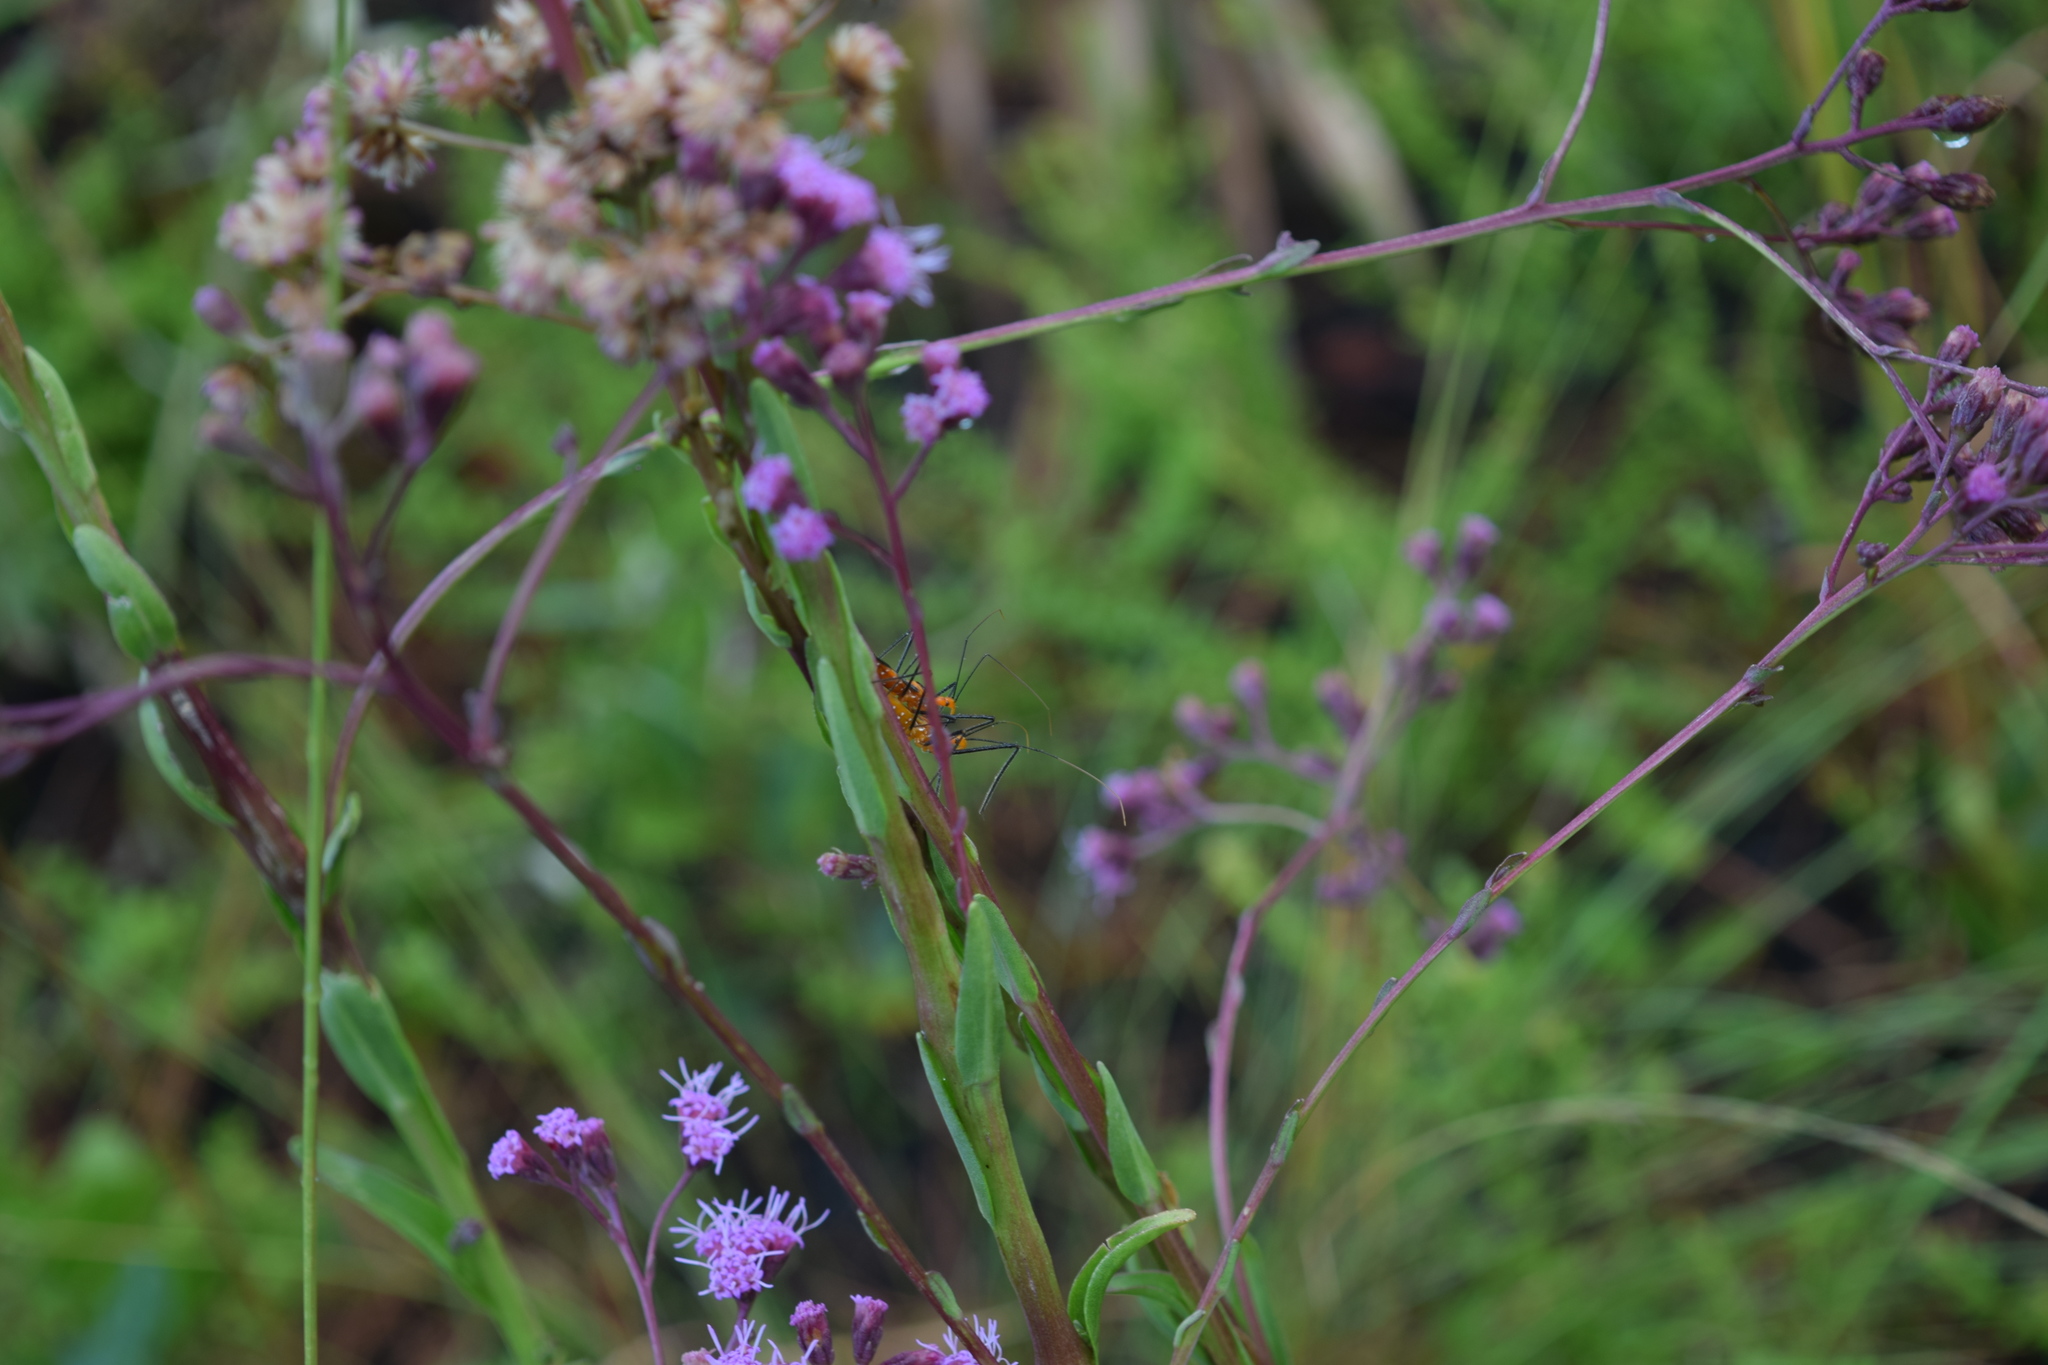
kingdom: Animalia
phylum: Arthropoda
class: Insecta
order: Hemiptera
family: Reduviidae
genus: Zelus
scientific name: Zelus longipes
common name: Milkweed assassin bug
